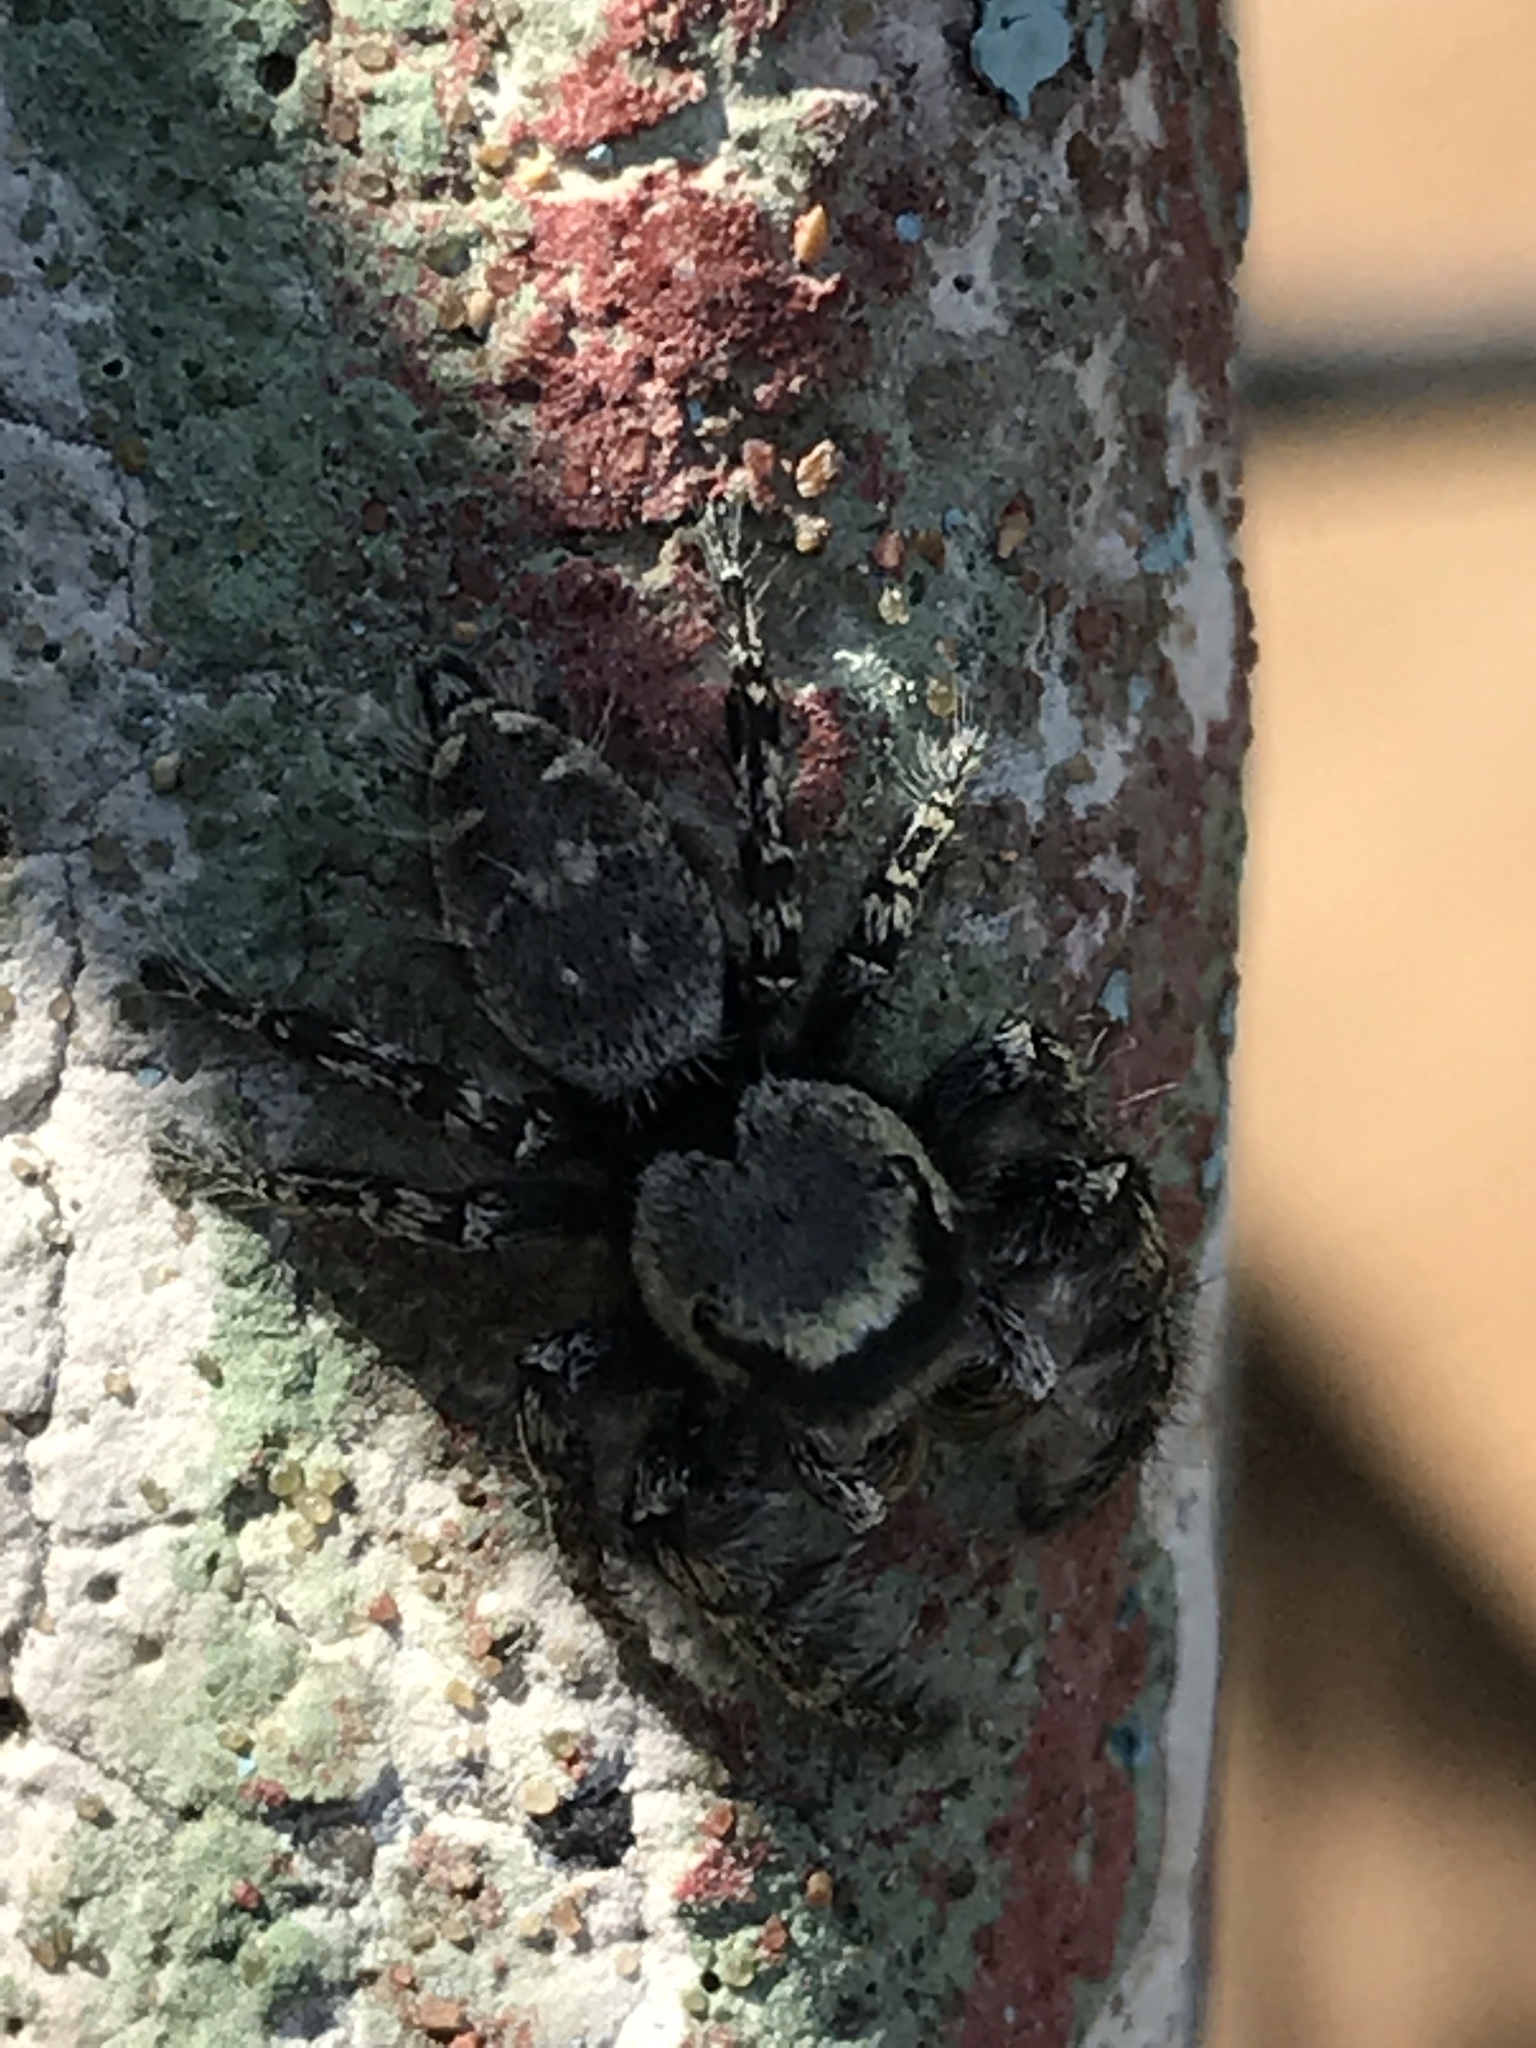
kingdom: Animalia
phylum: Arthropoda
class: Arachnida
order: Araneae
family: Salticidae
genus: Phidippus
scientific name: Phidippus carolinensis
